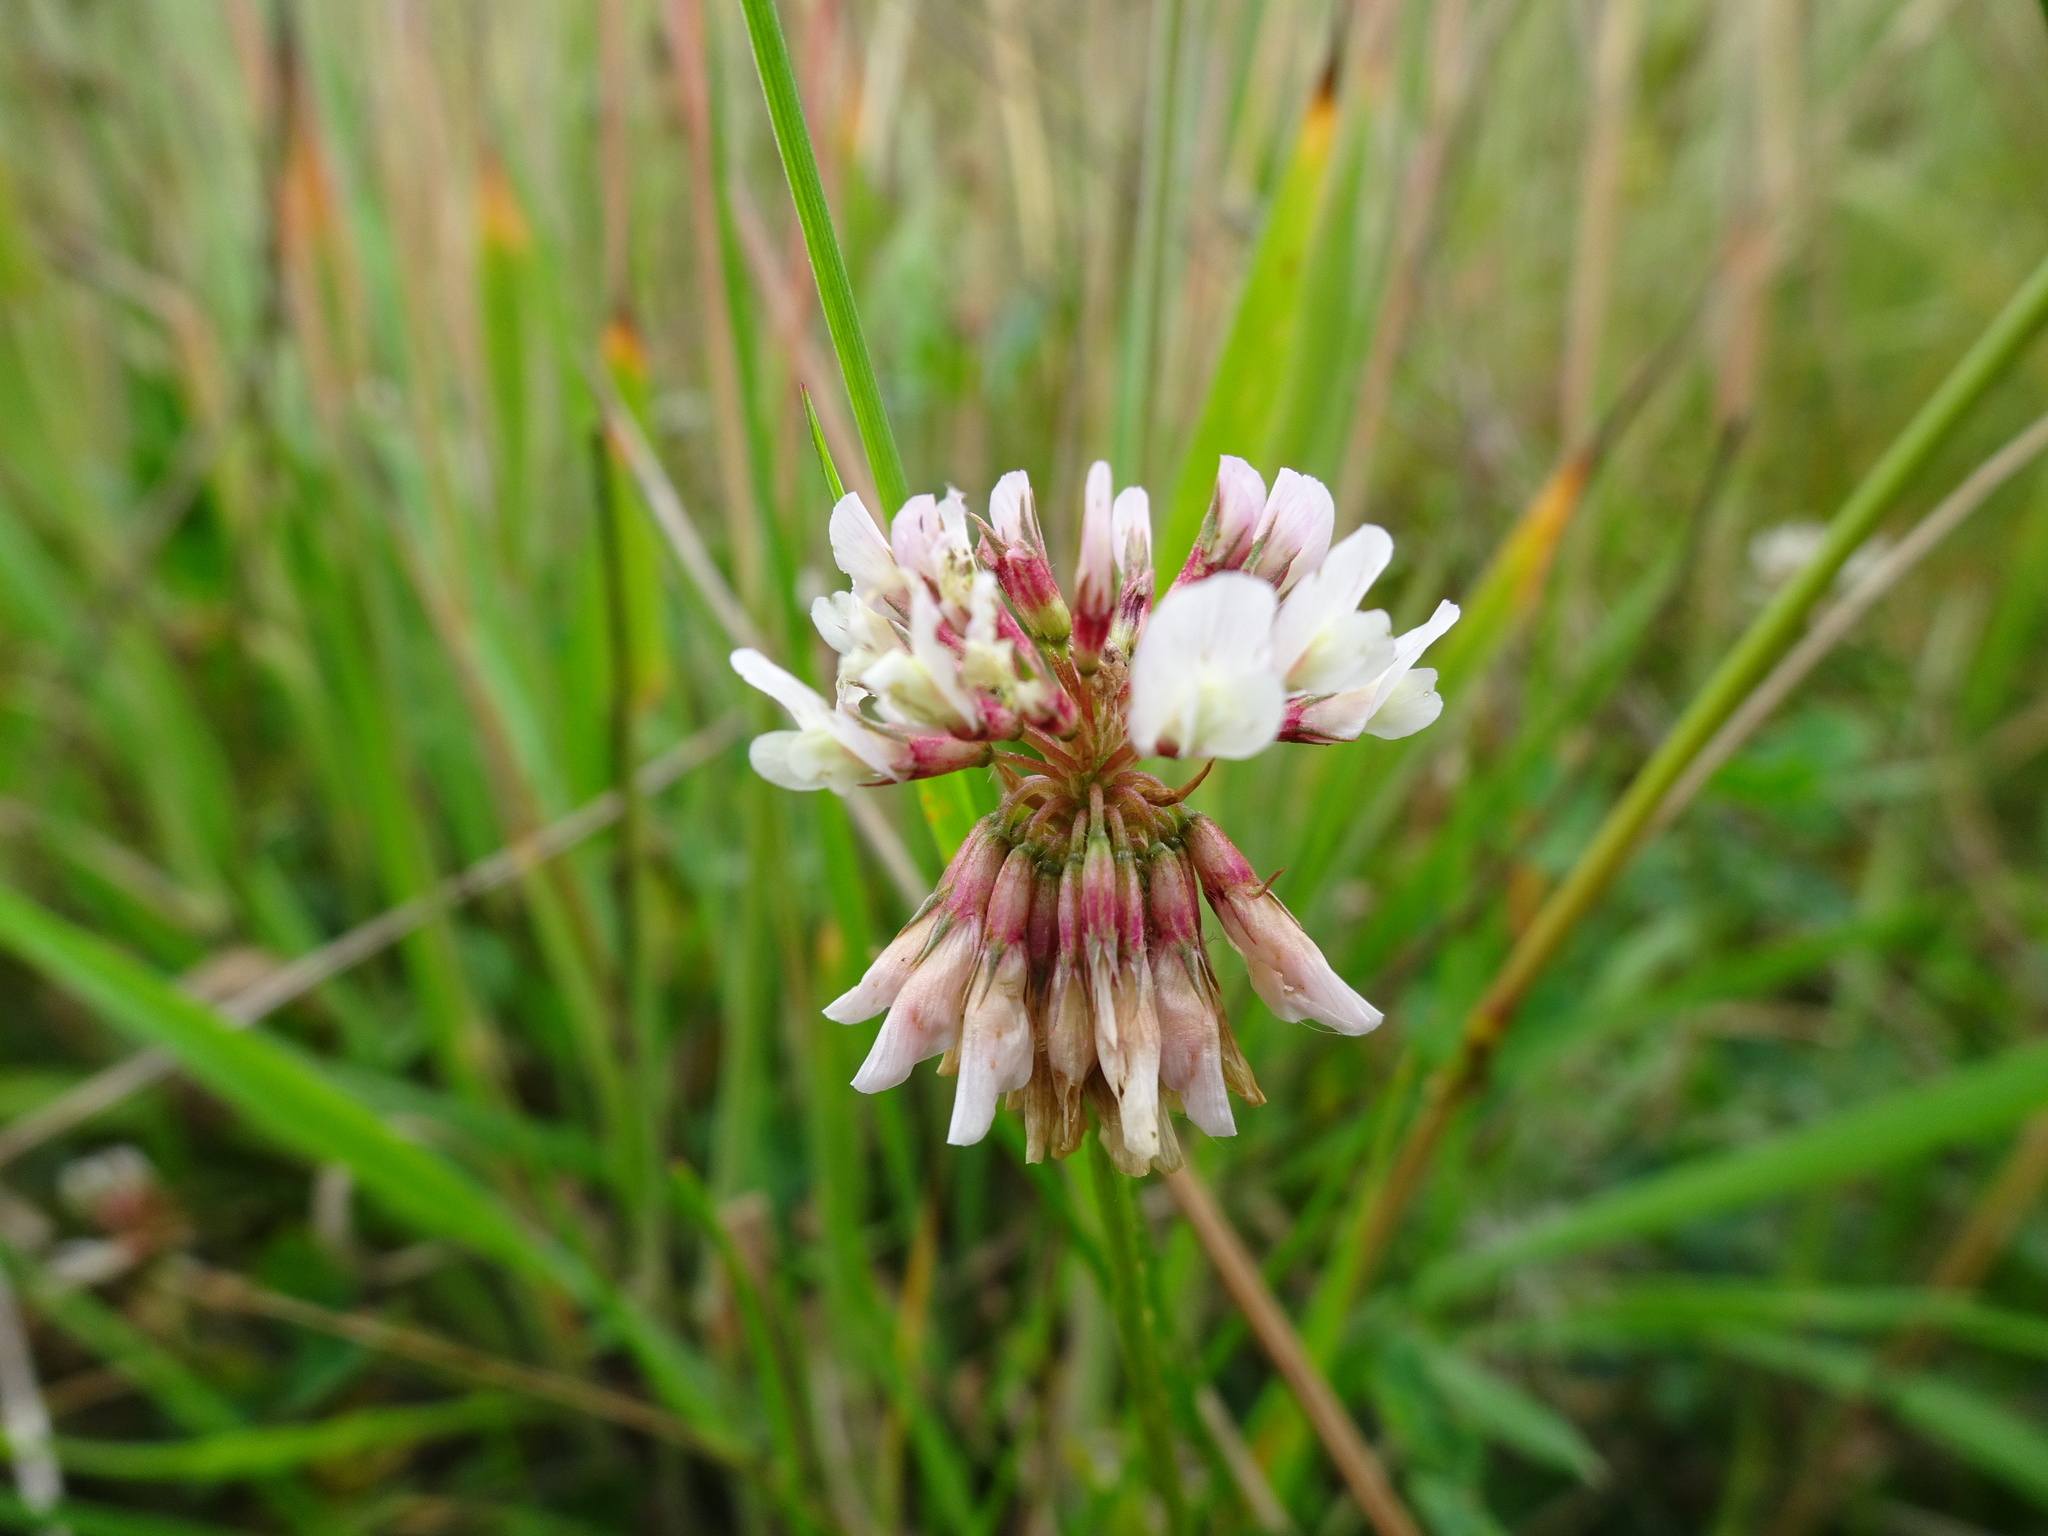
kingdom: Plantae
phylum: Tracheophyta
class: Magnoliopsida
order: Fabales
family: Fabaceae
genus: Trifolium
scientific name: Trifolium repens
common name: White clover
